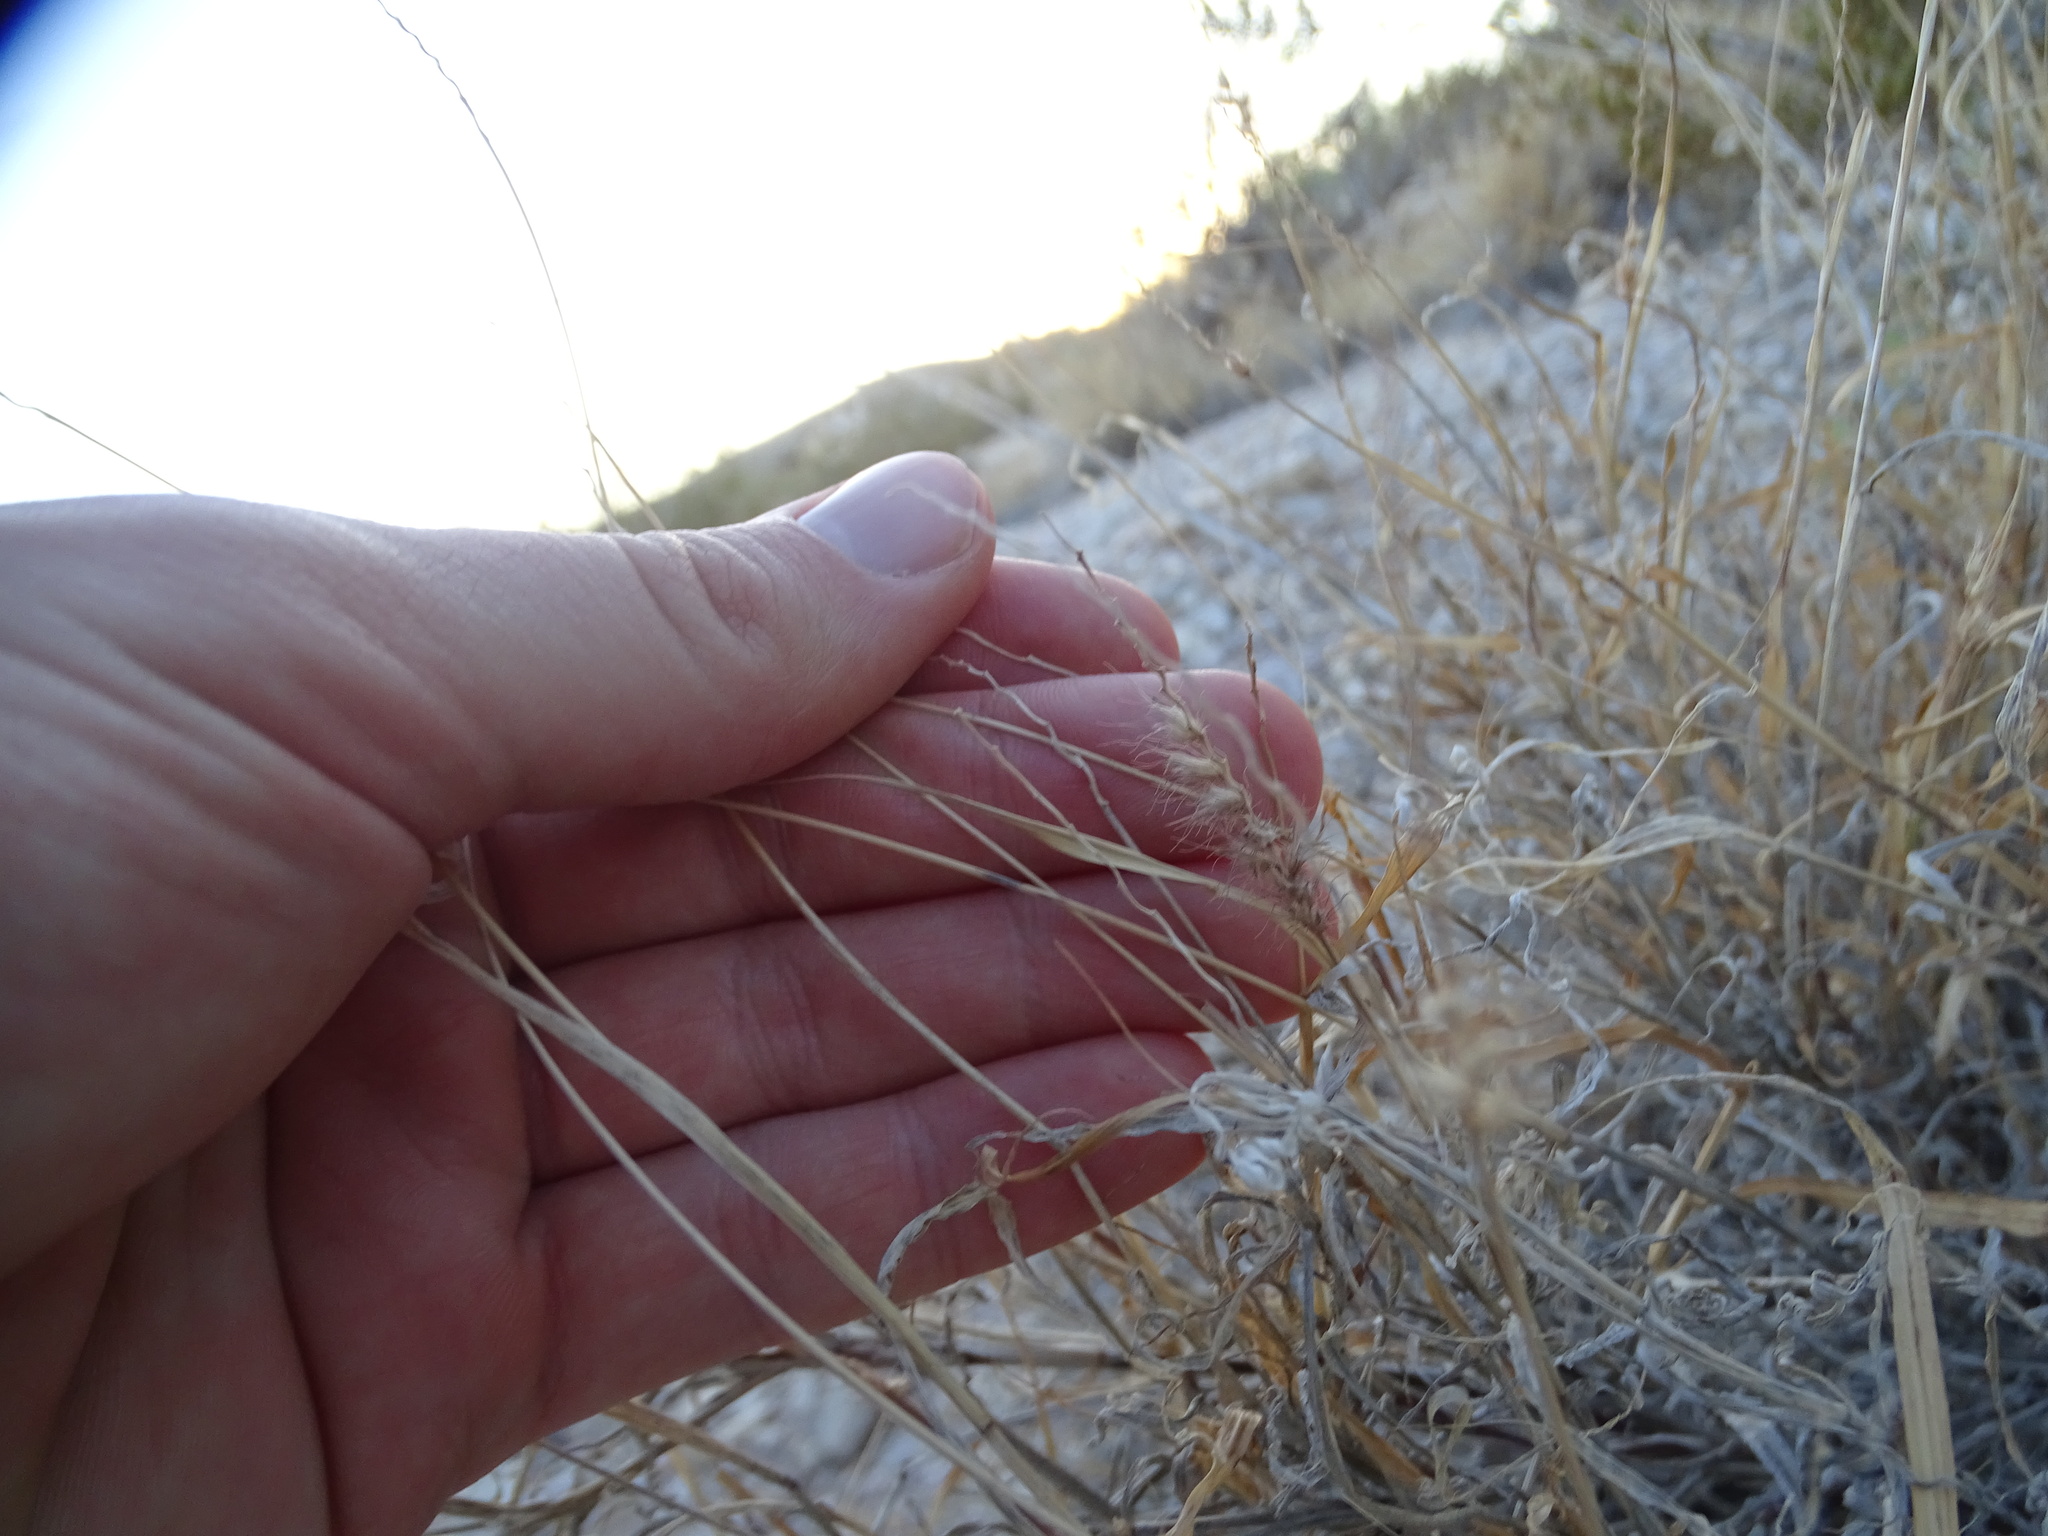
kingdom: Plantae
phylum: Tracheophyta
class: Liliopsida
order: Poales
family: Poaceae
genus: Cenchrus
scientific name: Cenchrus ciliaris
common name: Buffelgrass
